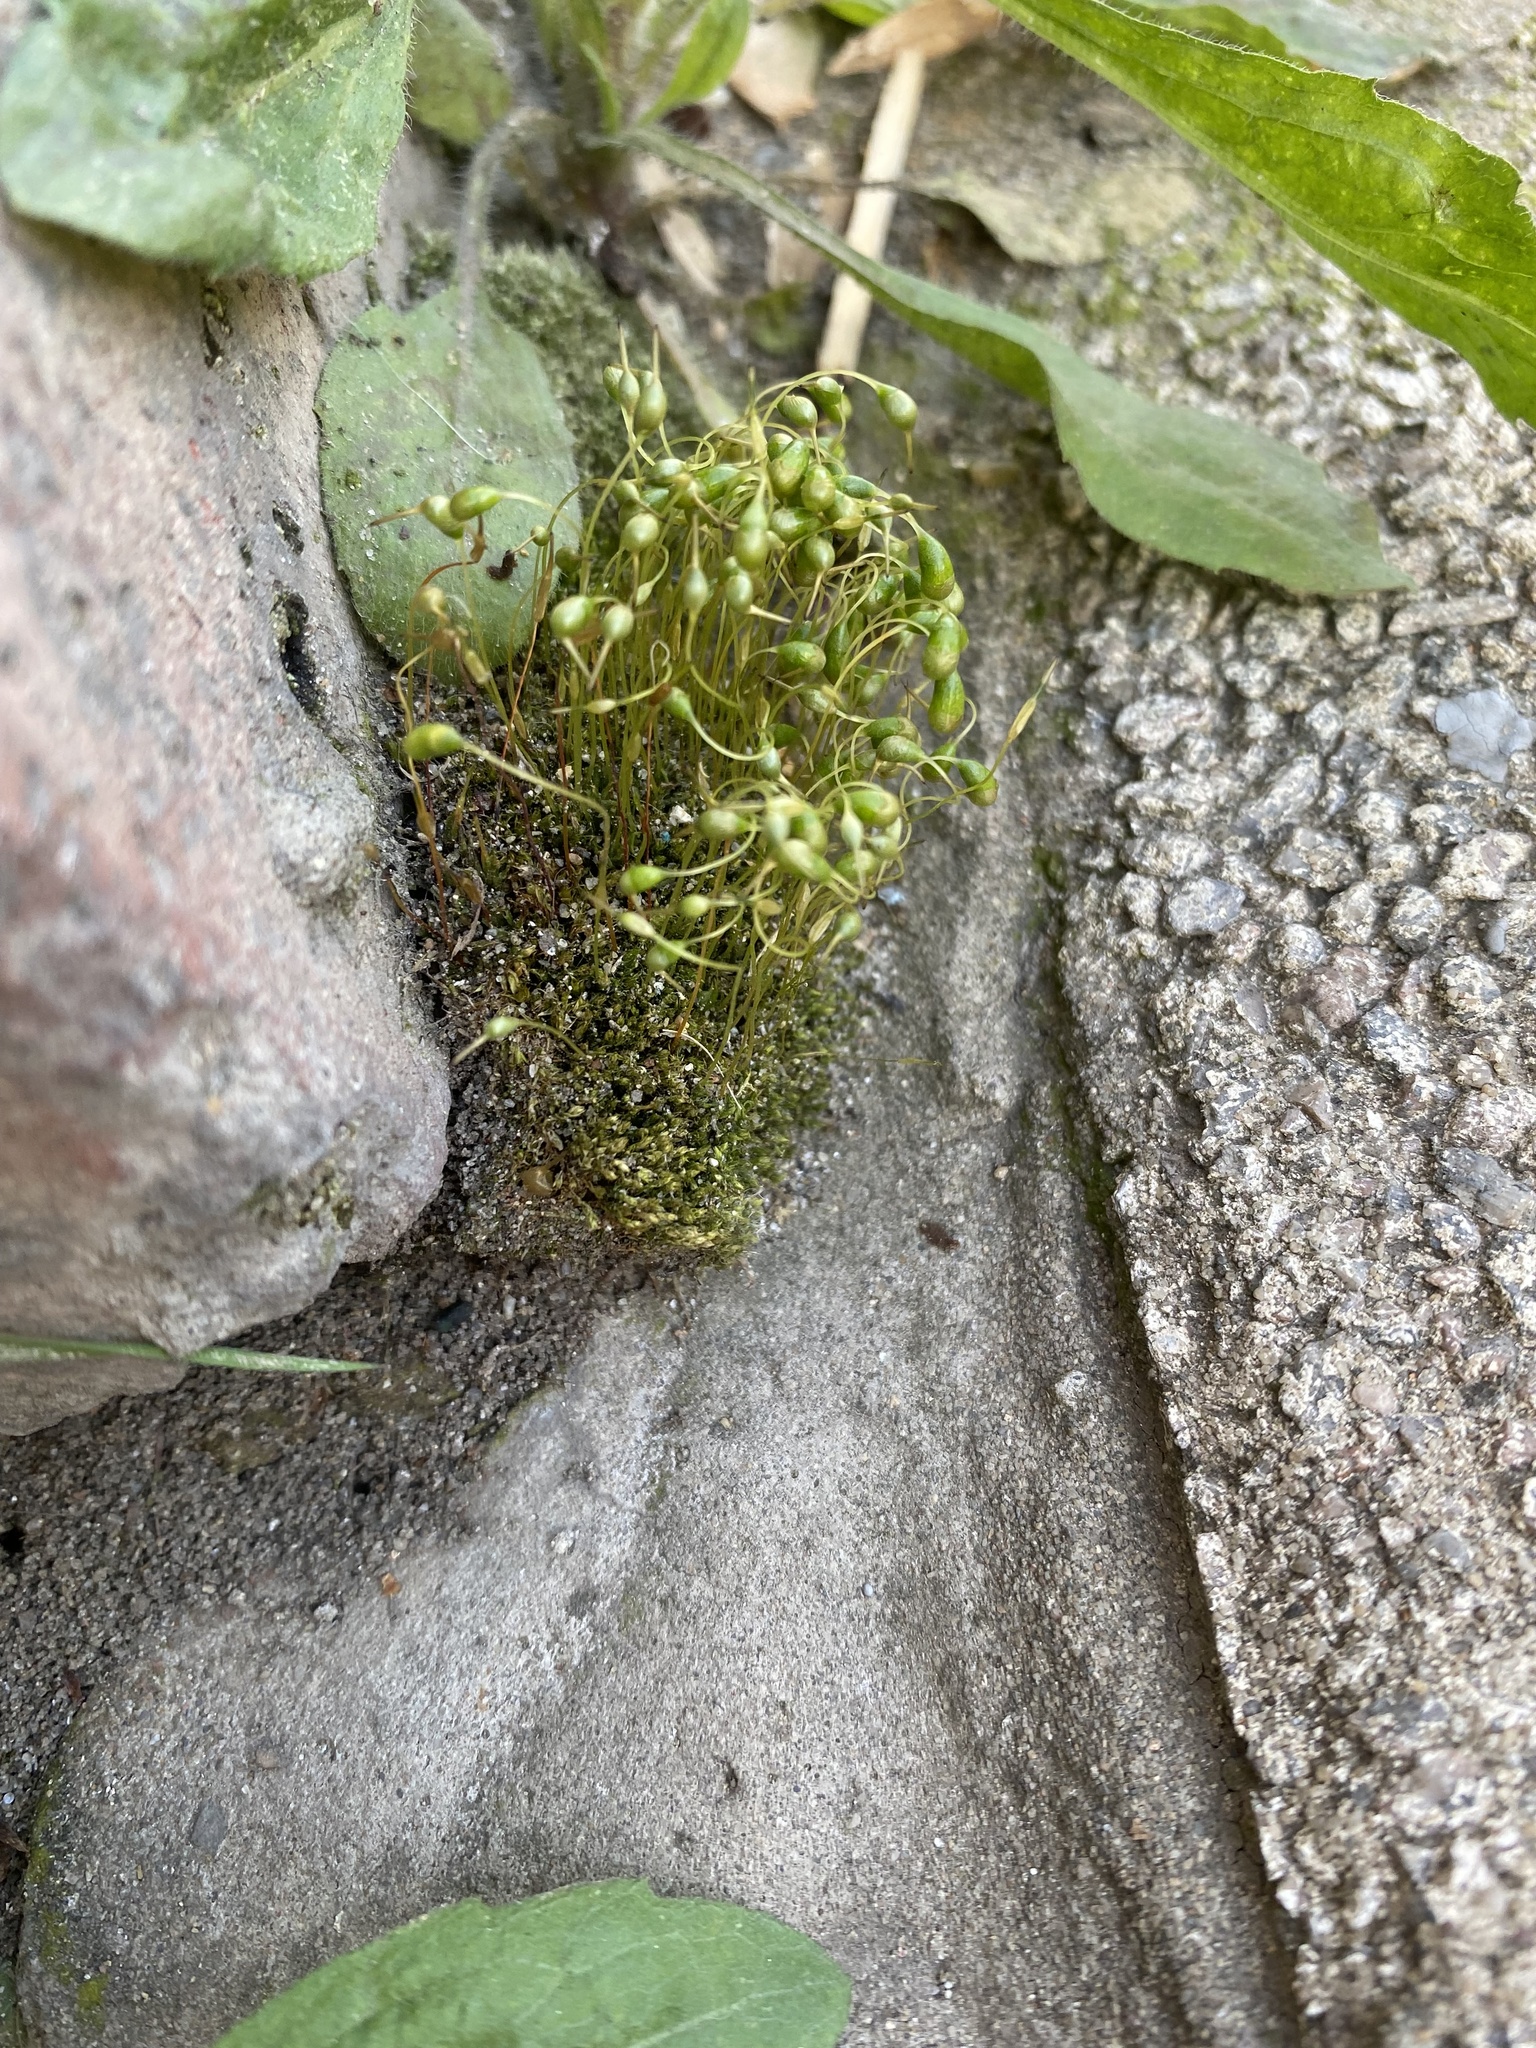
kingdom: Plantae
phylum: Bryophyta
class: Bryopsida
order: Funariales
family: Funariaceae
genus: Funaria
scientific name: Funaria hygrometrica
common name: Common cord moss
